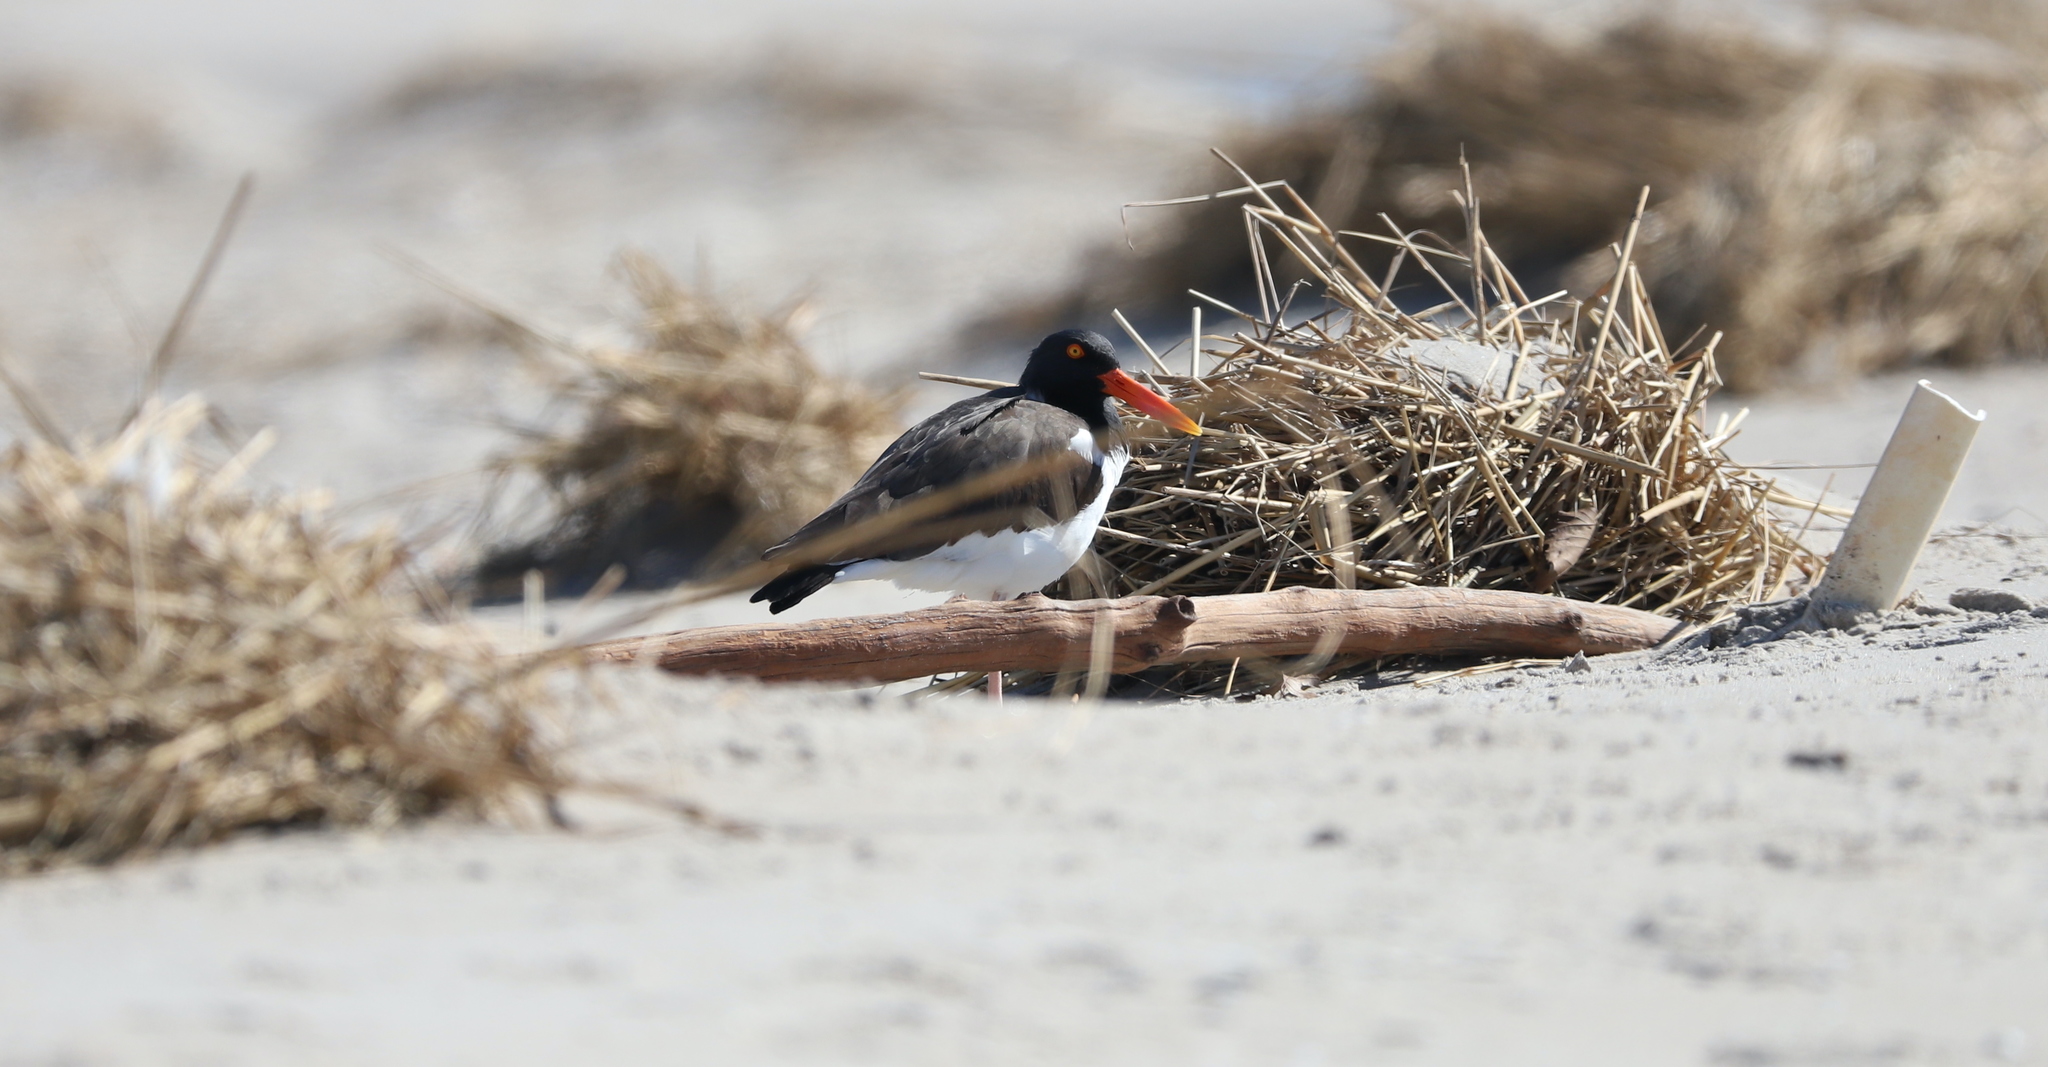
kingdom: Animalia
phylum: Chordata
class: Aves
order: Charadriiformes
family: Haematopodidae
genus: Haematopus
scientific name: Haematopus palliatus
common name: American oystercatcher
